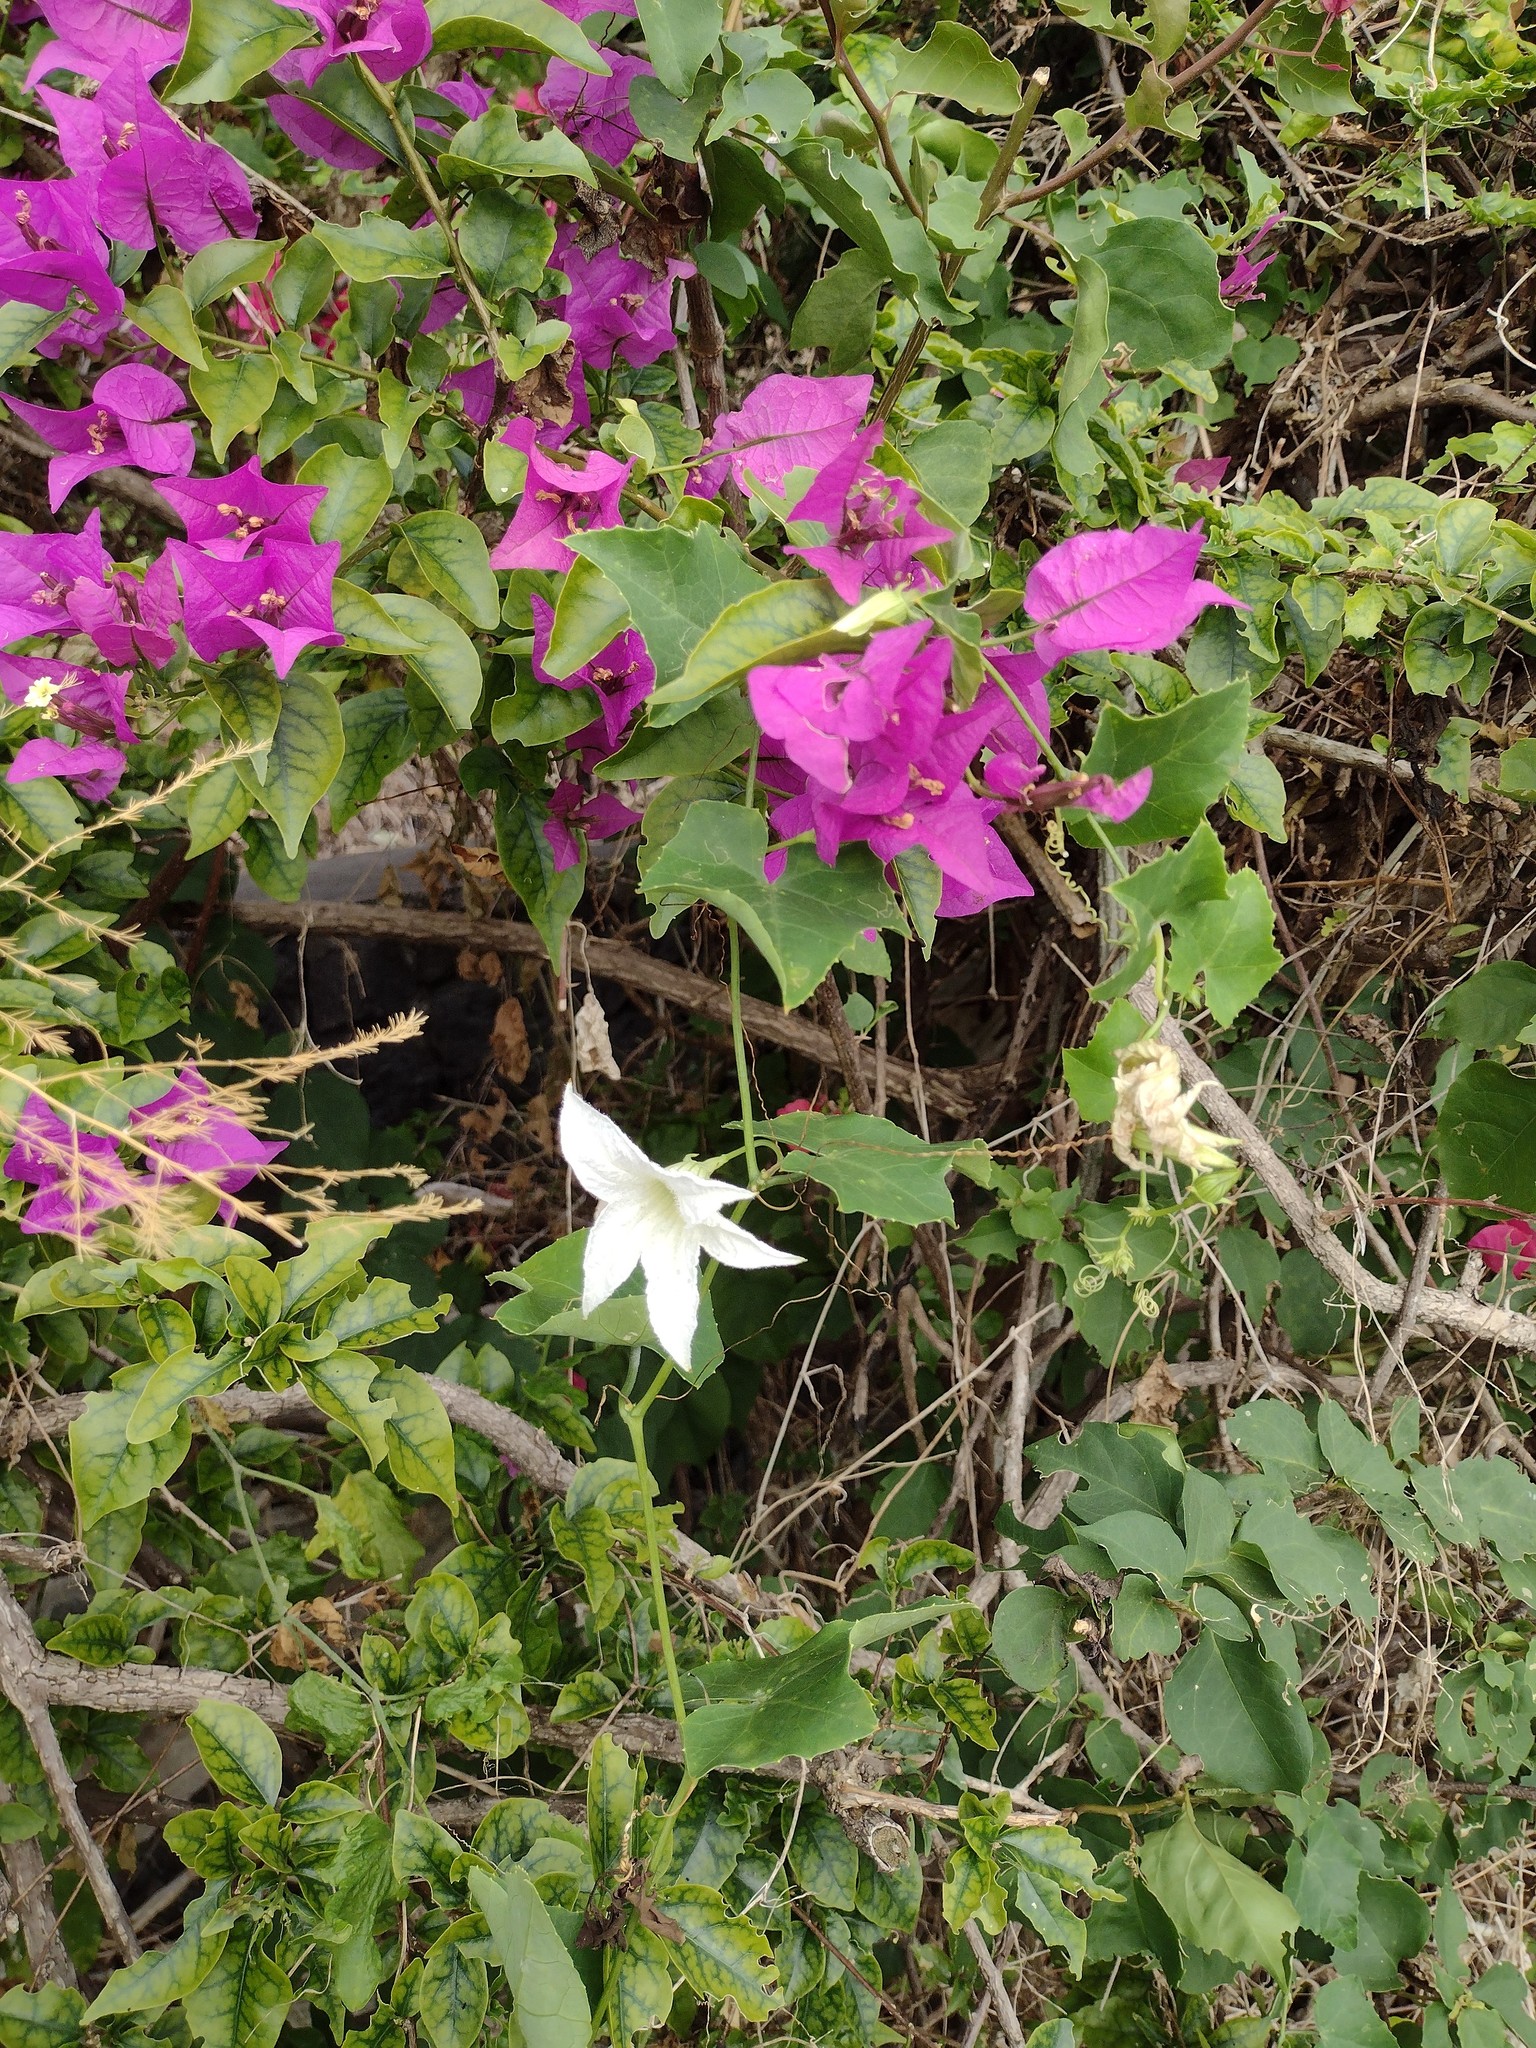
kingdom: Plantae
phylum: Tracheophyta
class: Magnoliopsida
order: Cucurbitales
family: Cucurbitaceae
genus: Coccinia
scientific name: Coccinia grandis
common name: Ivy gourd
